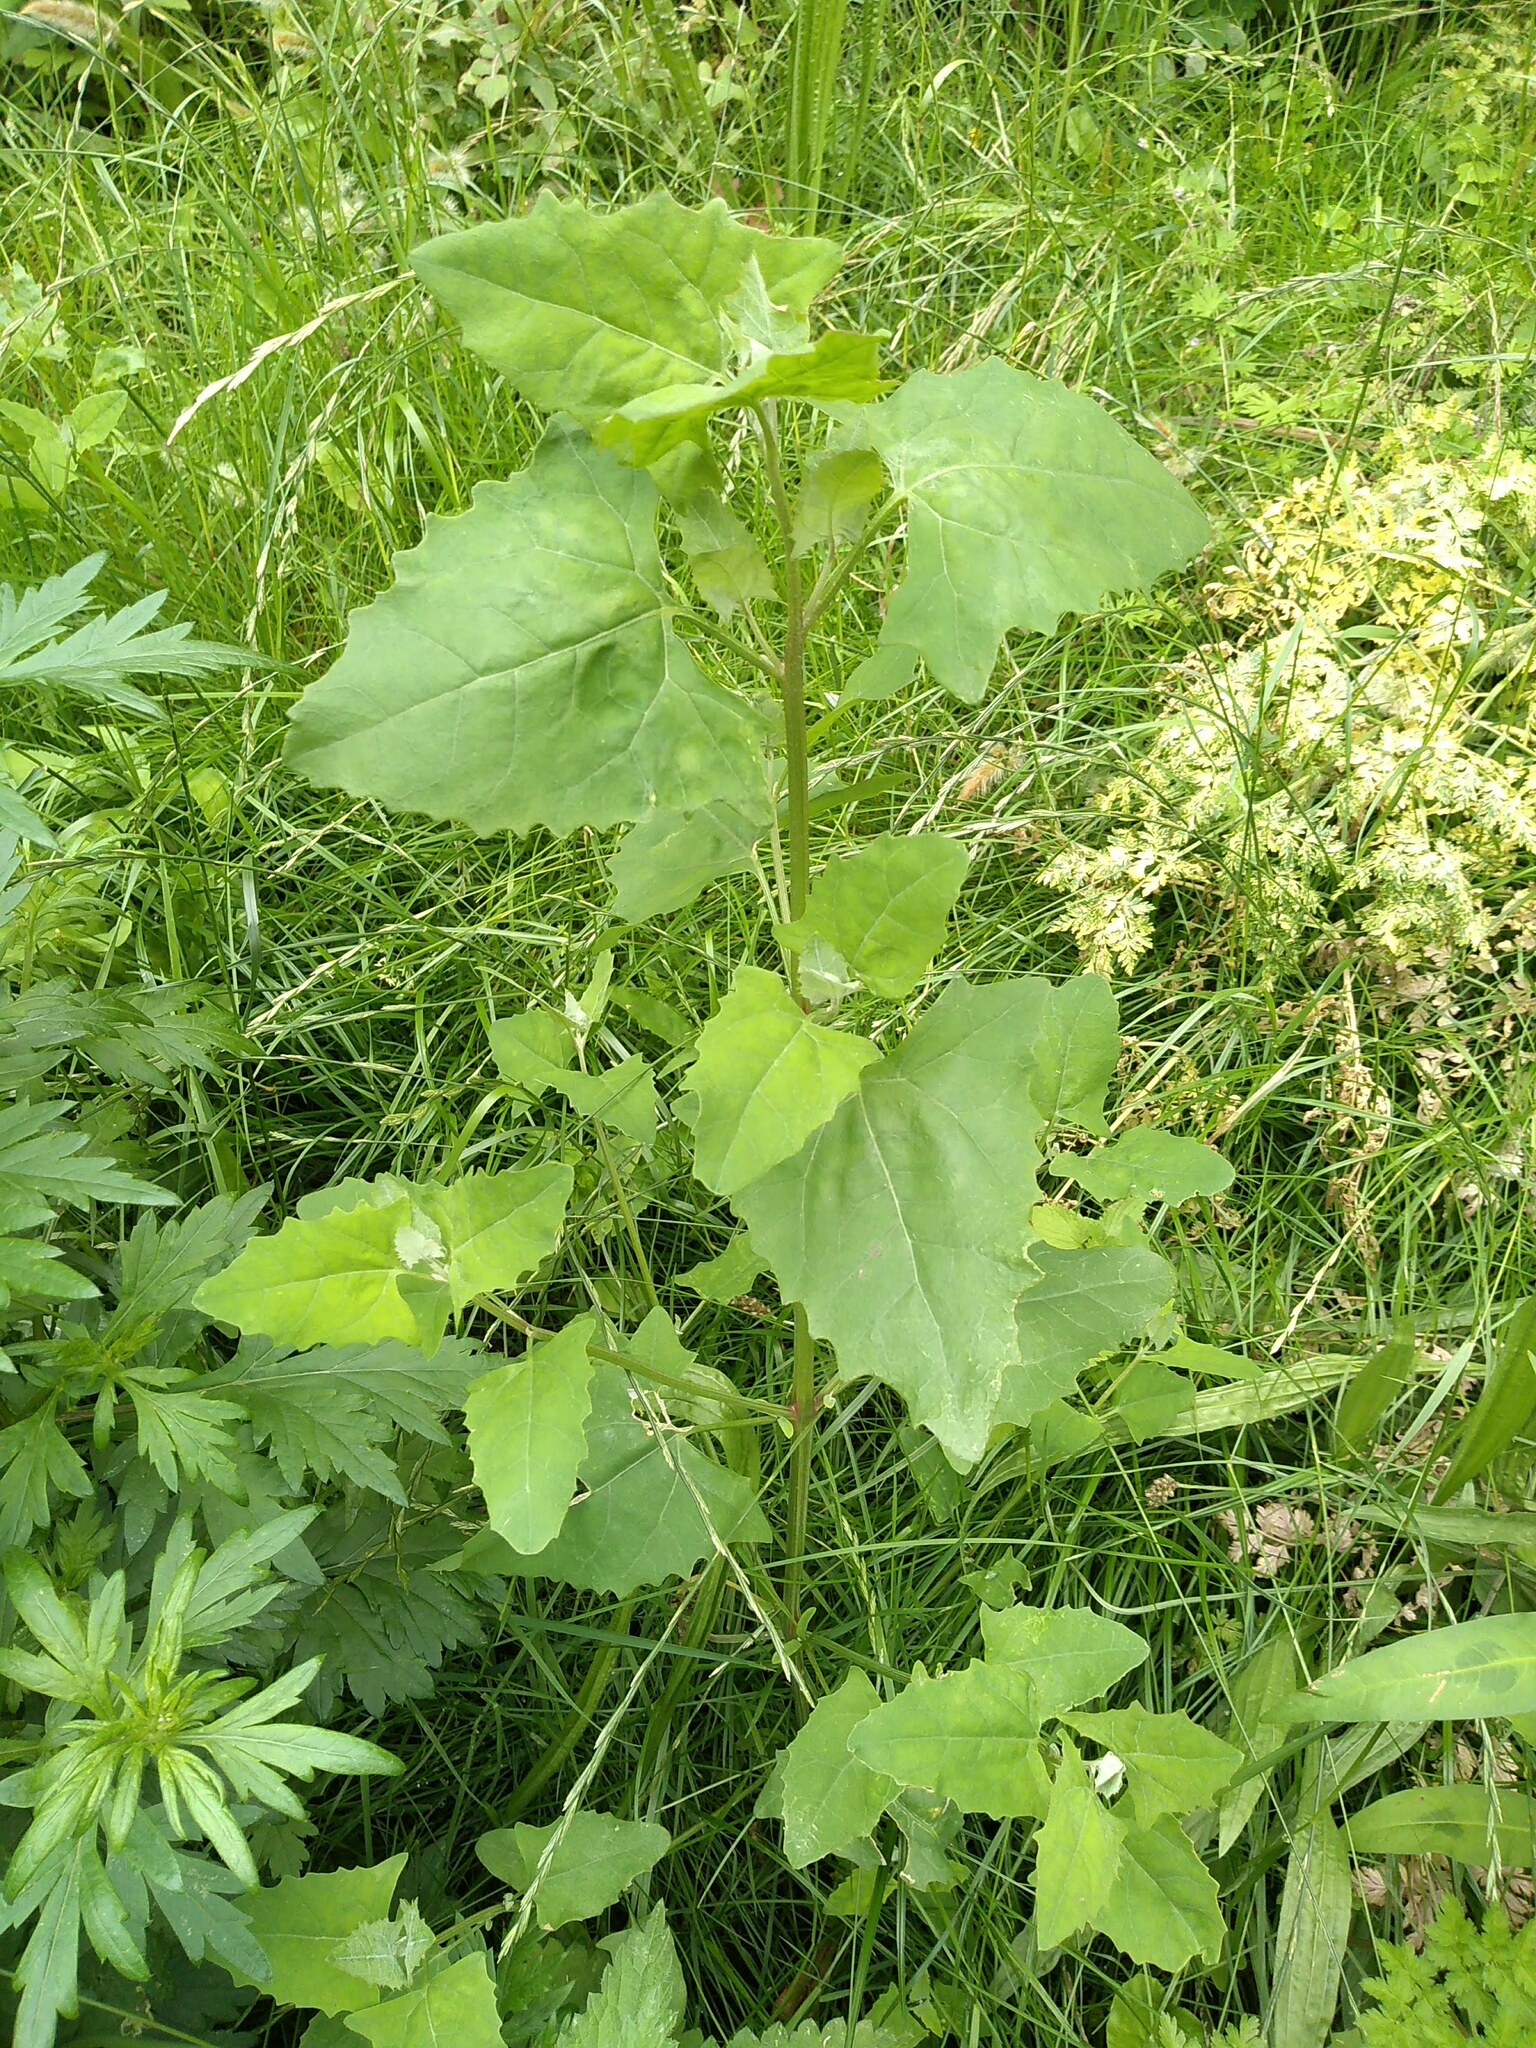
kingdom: Plantae
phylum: Tracheophyta
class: Magnoliopsida
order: Caryophyllales
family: Amaranthaceae
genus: Chenopodium
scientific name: Chenopodium album
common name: Fat-hen
